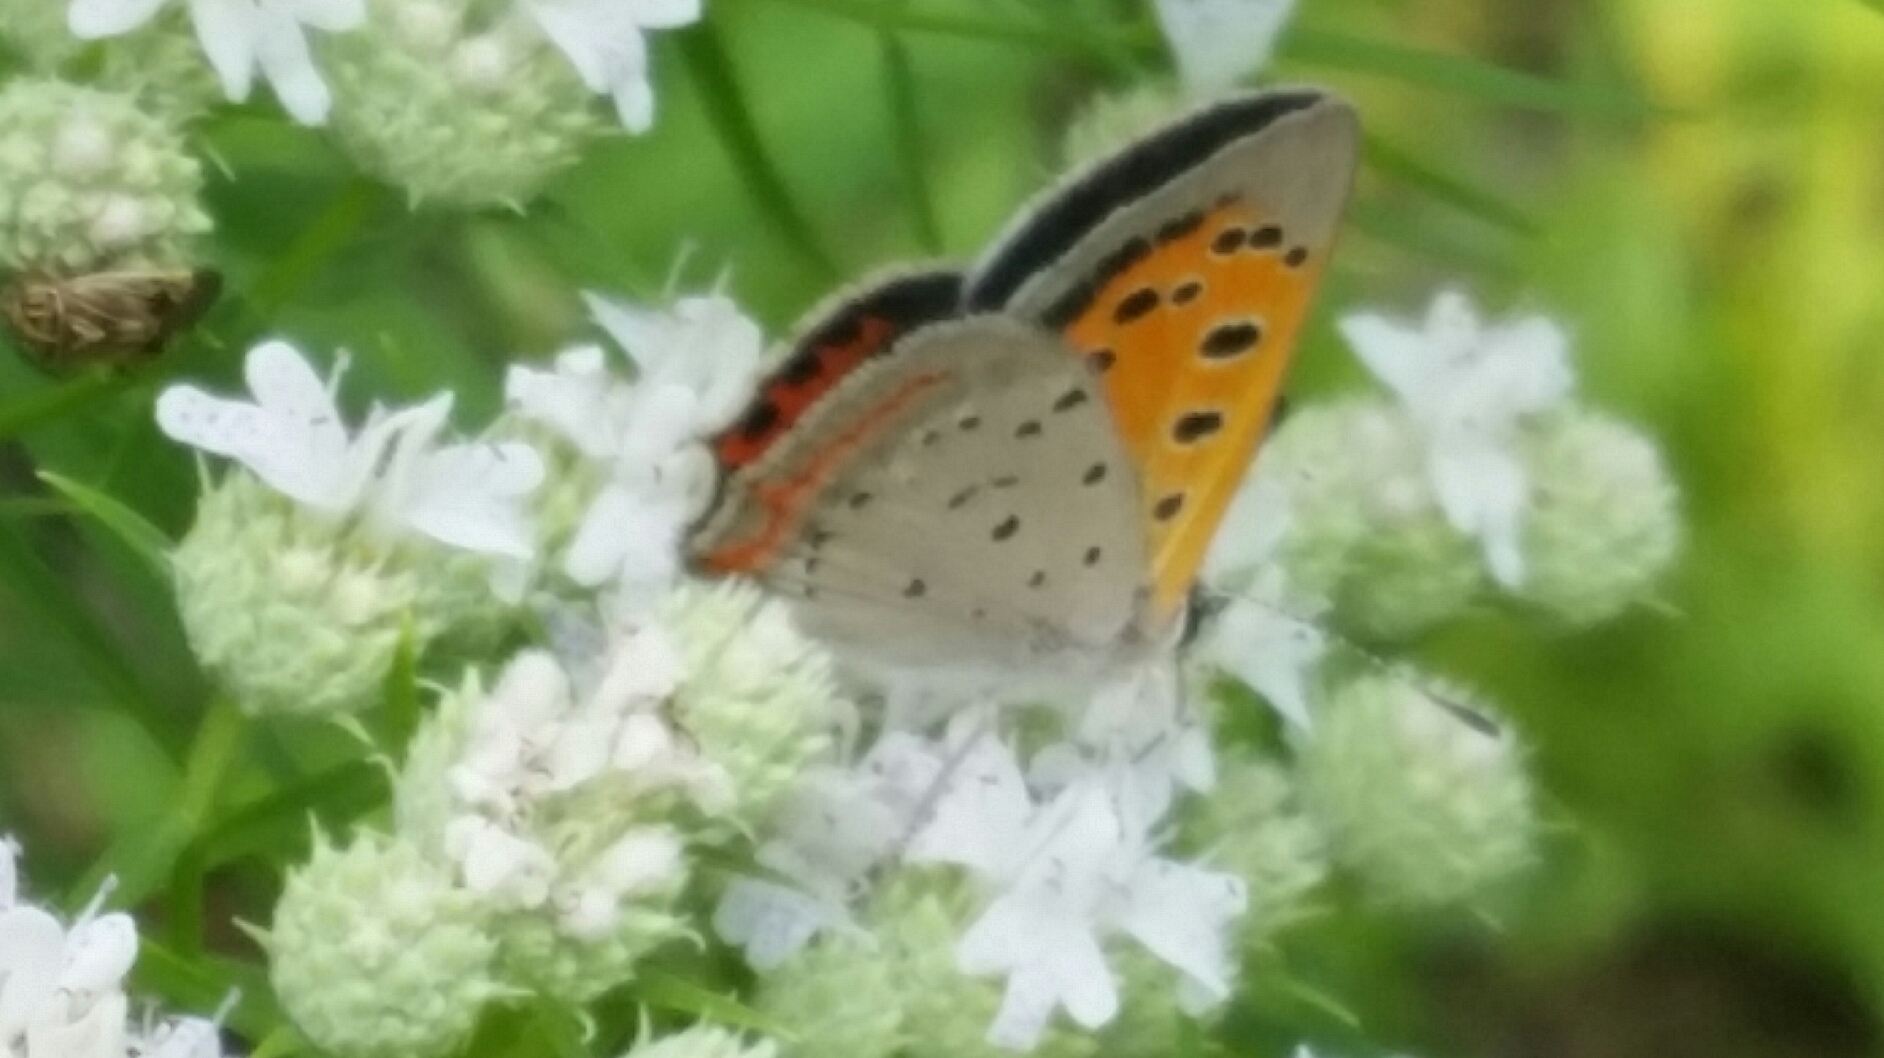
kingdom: Animalia
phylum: Arthropoda
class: Insecta
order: Lepidoptera
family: Lycaenidae
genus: Lycaena
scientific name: Lycaena hypophlaeas
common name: American copper
